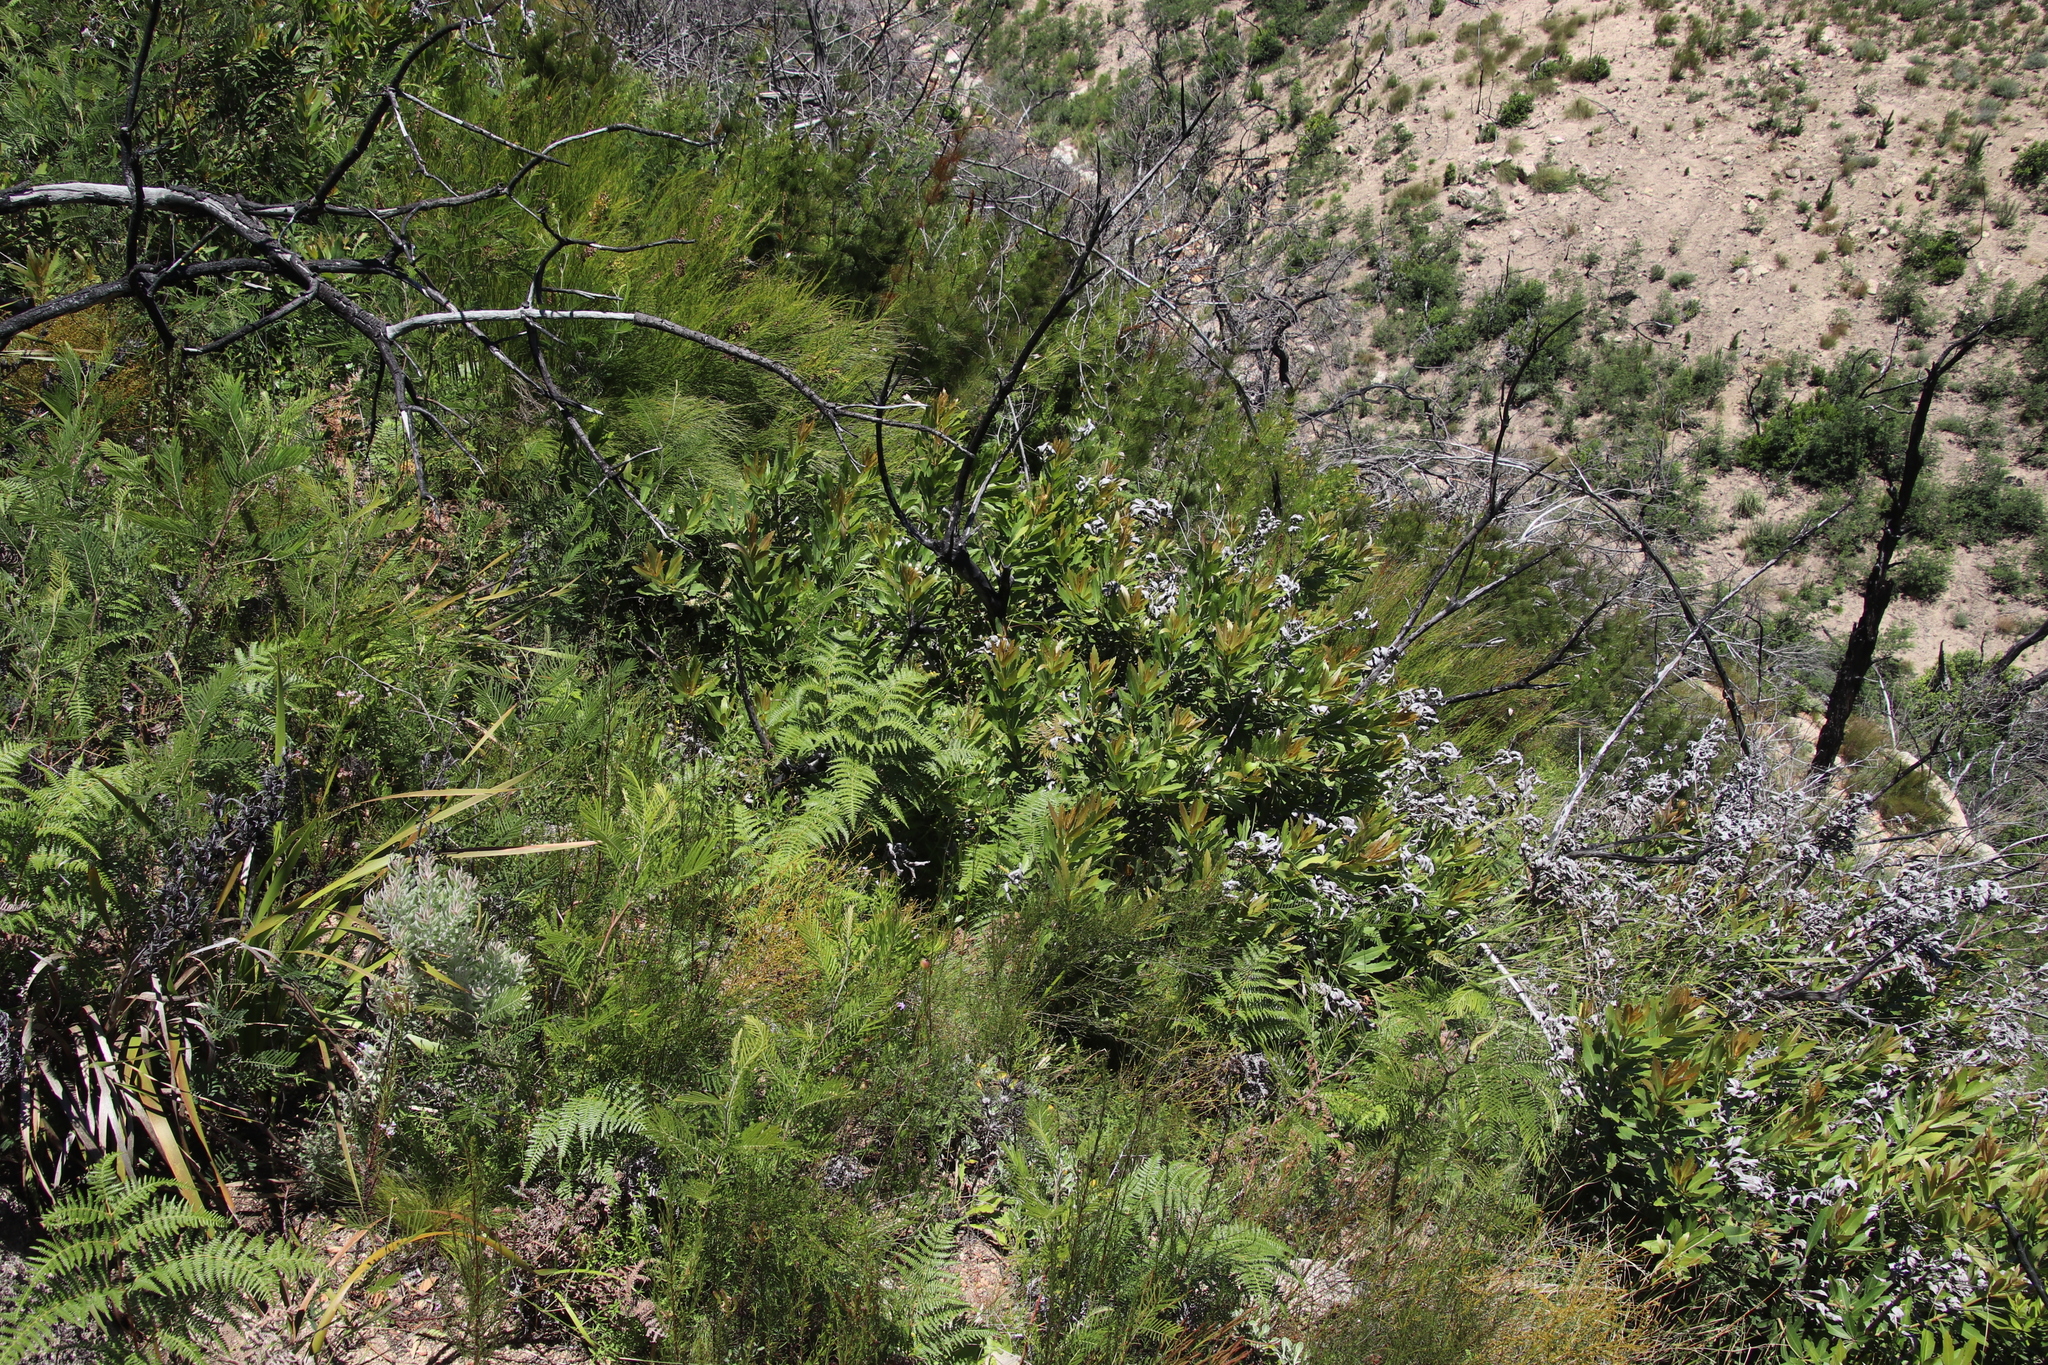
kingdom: Plantae
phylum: Tracheophyta
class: Magnoliopsida
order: Proteales
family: Proteaceae
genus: Brabejum
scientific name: Brabejum stellatifolium
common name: Wild almond
